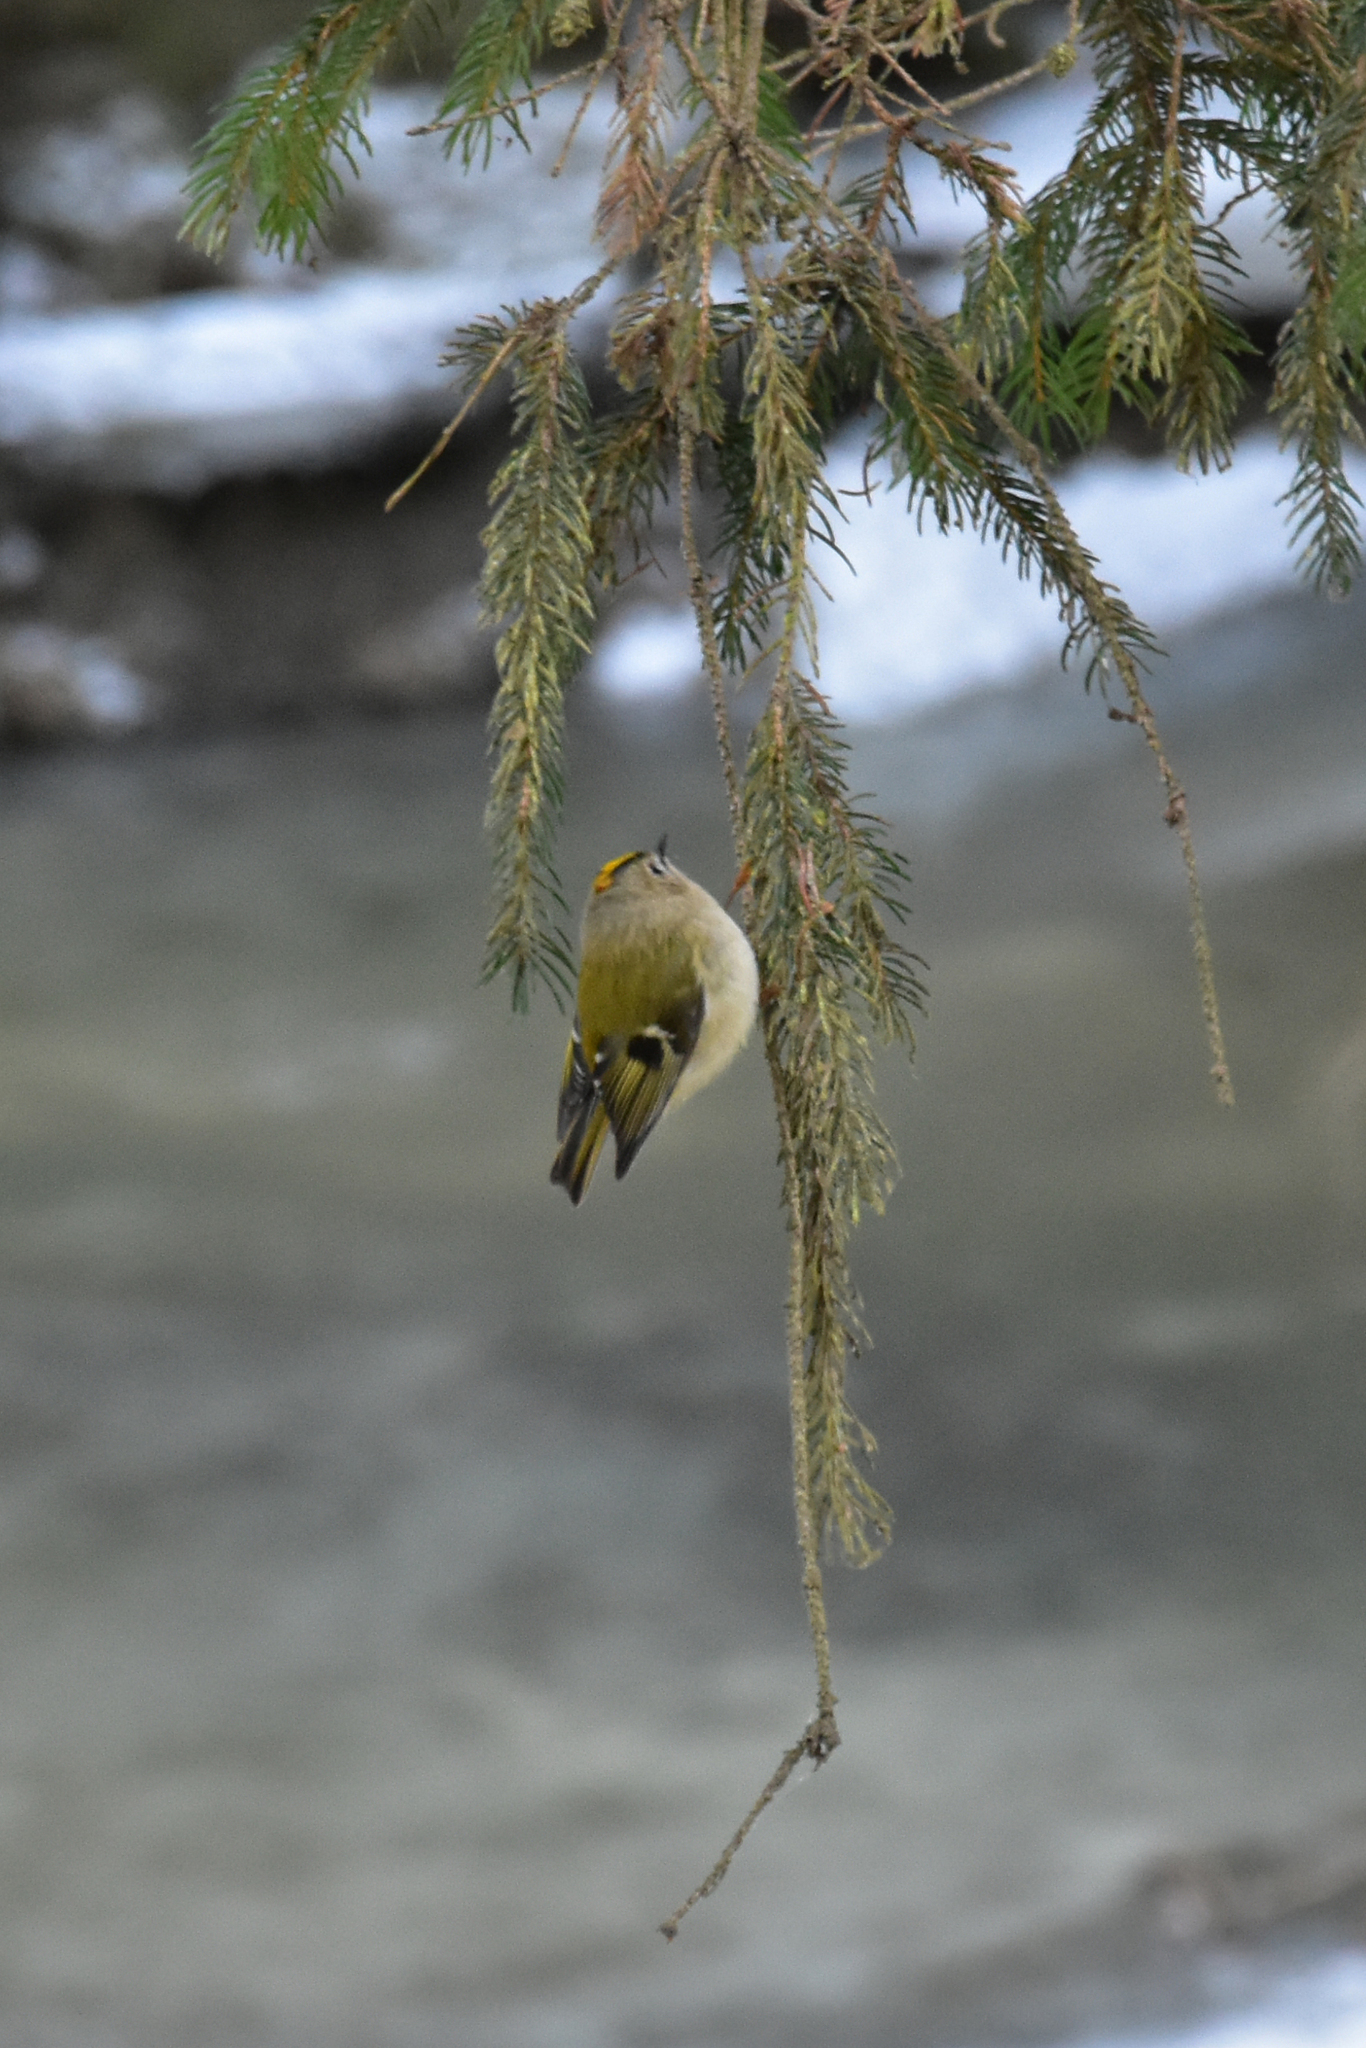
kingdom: Animalia
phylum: Chordata
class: Aves
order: Passeriformes
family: Regulidae
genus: Regulus
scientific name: Regulus regulus
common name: Goldcrest
